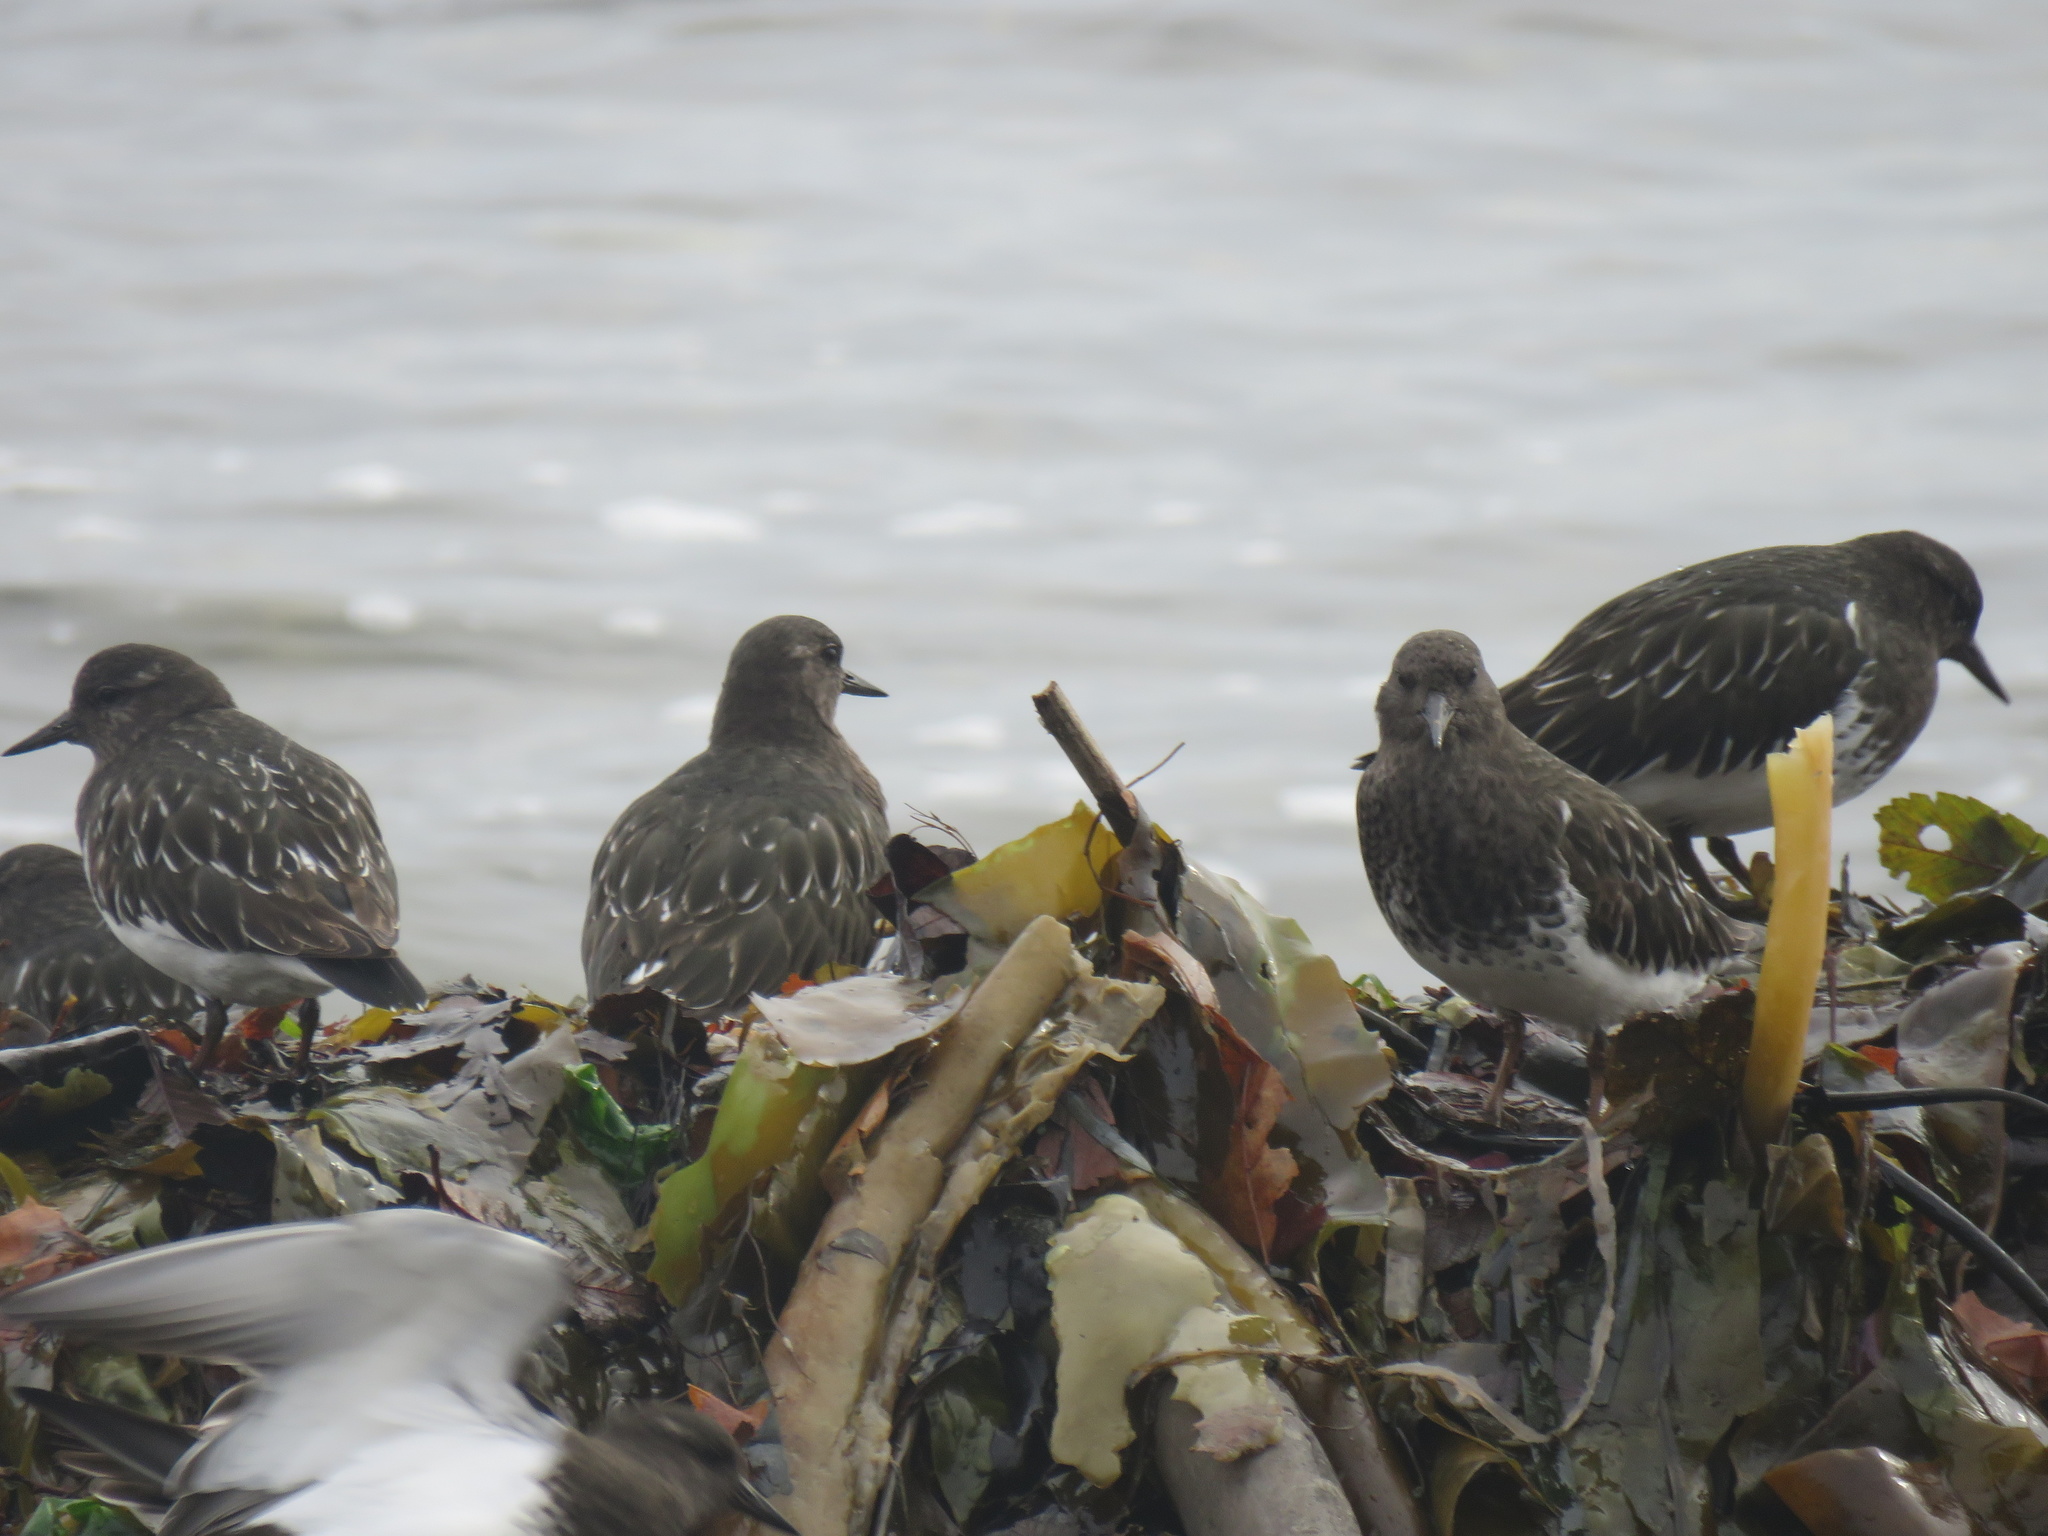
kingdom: Animalia
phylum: Chordata
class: Aves
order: Charadriiformes
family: Scolopacidae
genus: Arenaria
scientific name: Arenaria melanocephala
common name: Black turnstone
